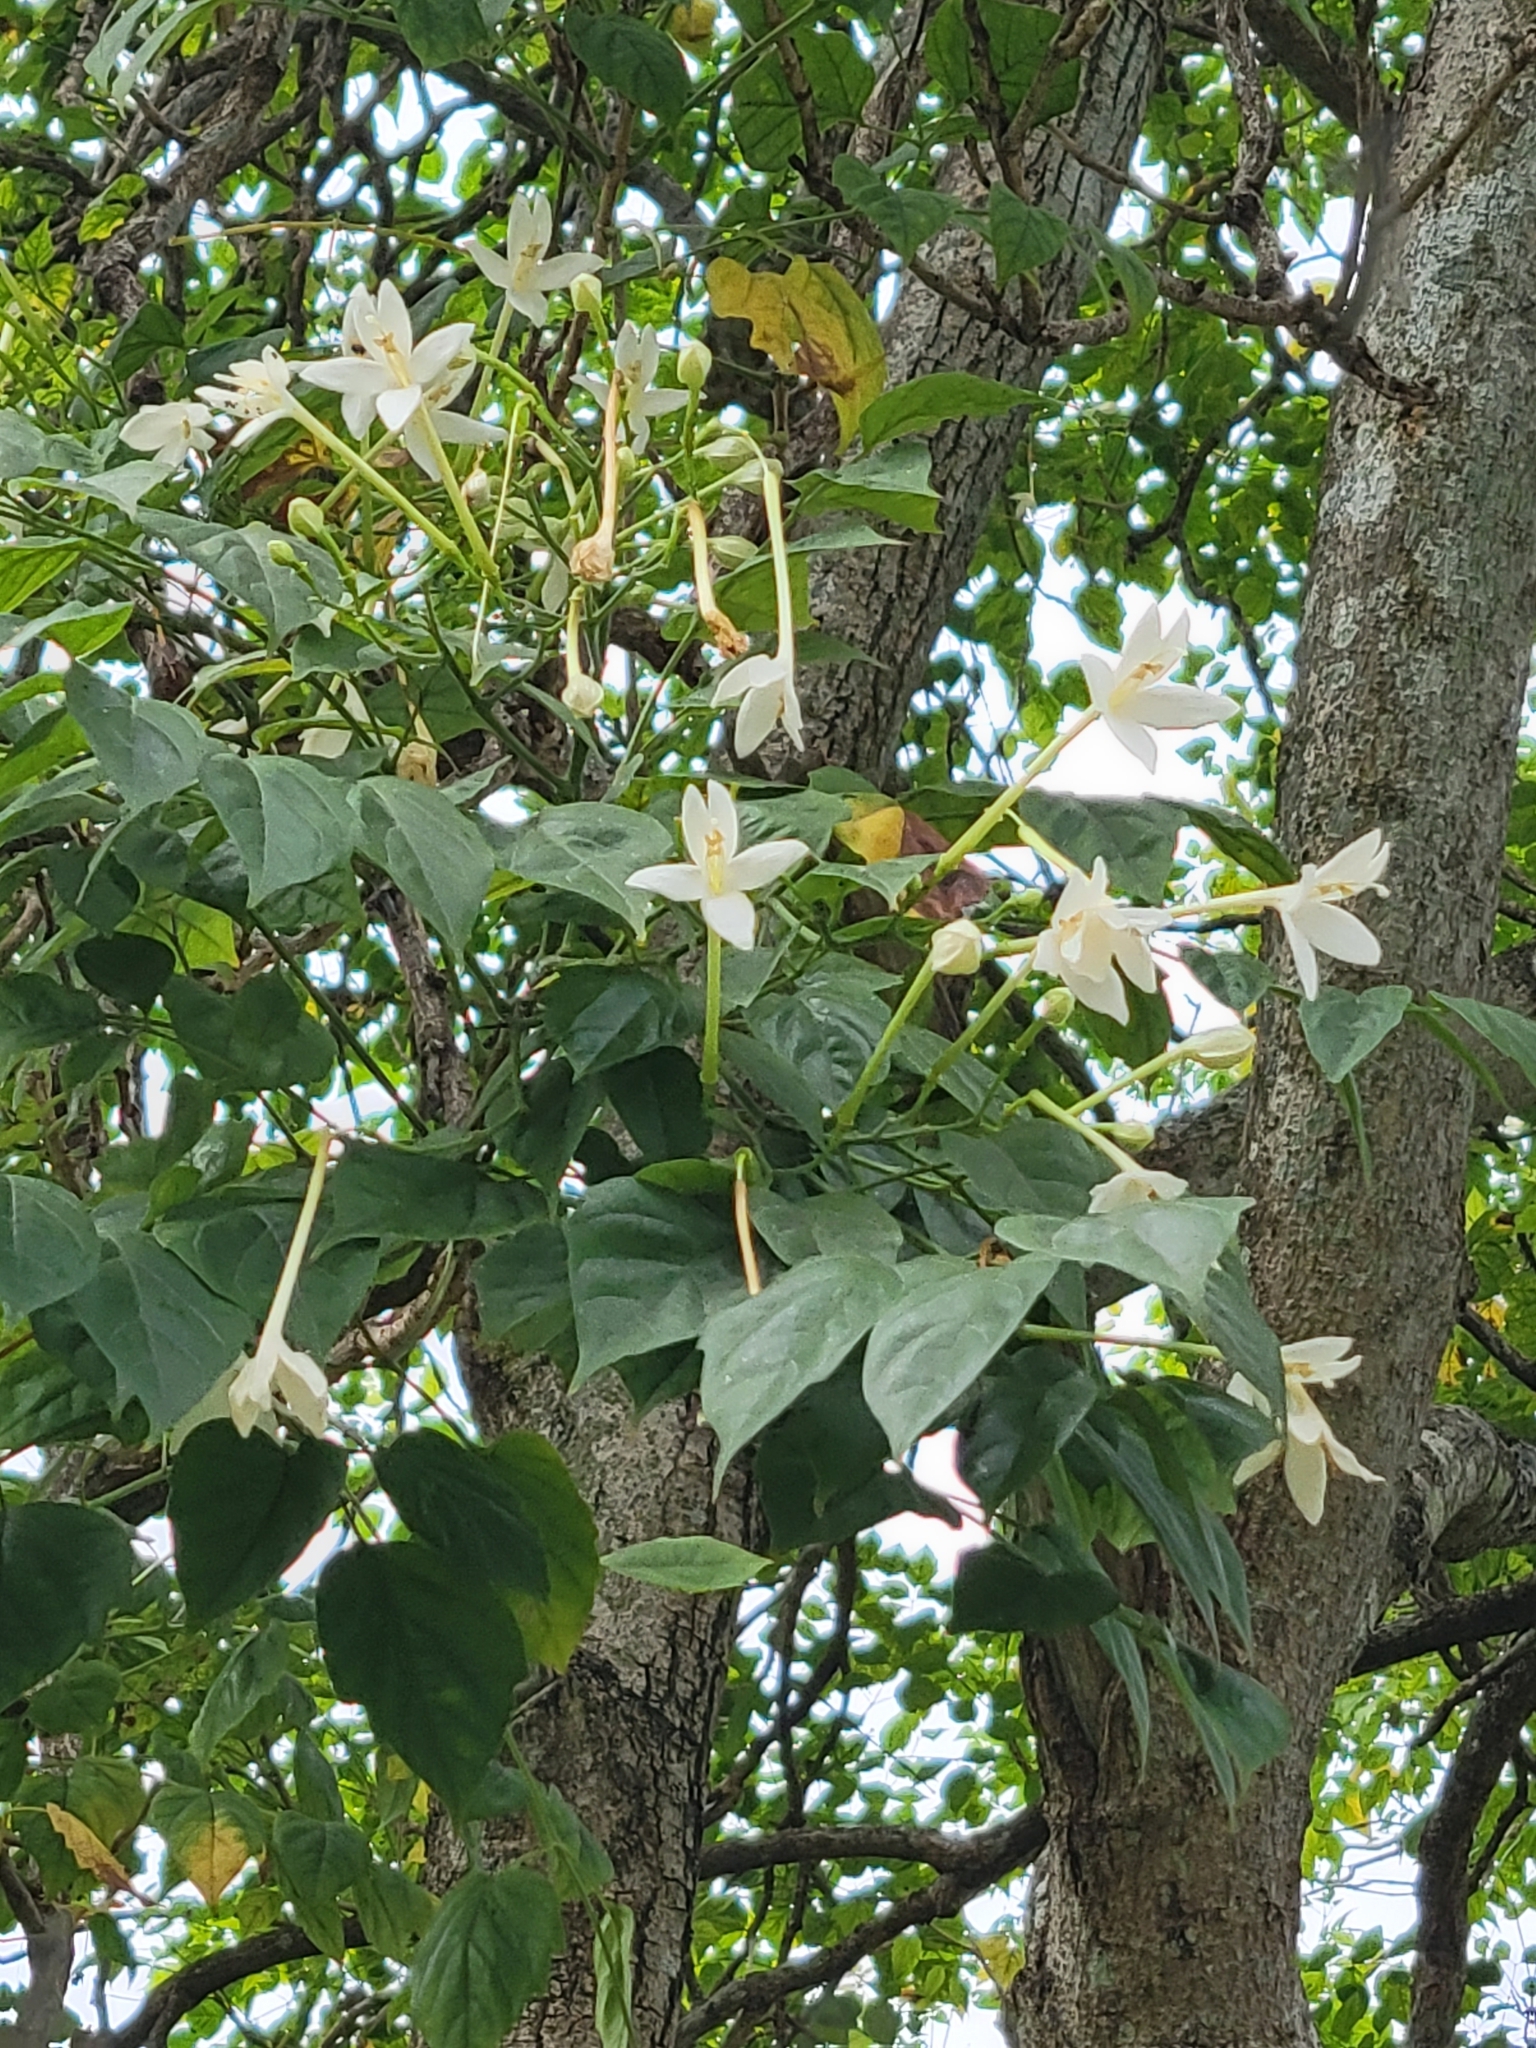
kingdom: Plantae
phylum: Tracheophyta
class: Magnoliopsida
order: Lamiales
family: Bignoniaceae
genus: Millingtonia
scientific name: Millingtonia hortensis
